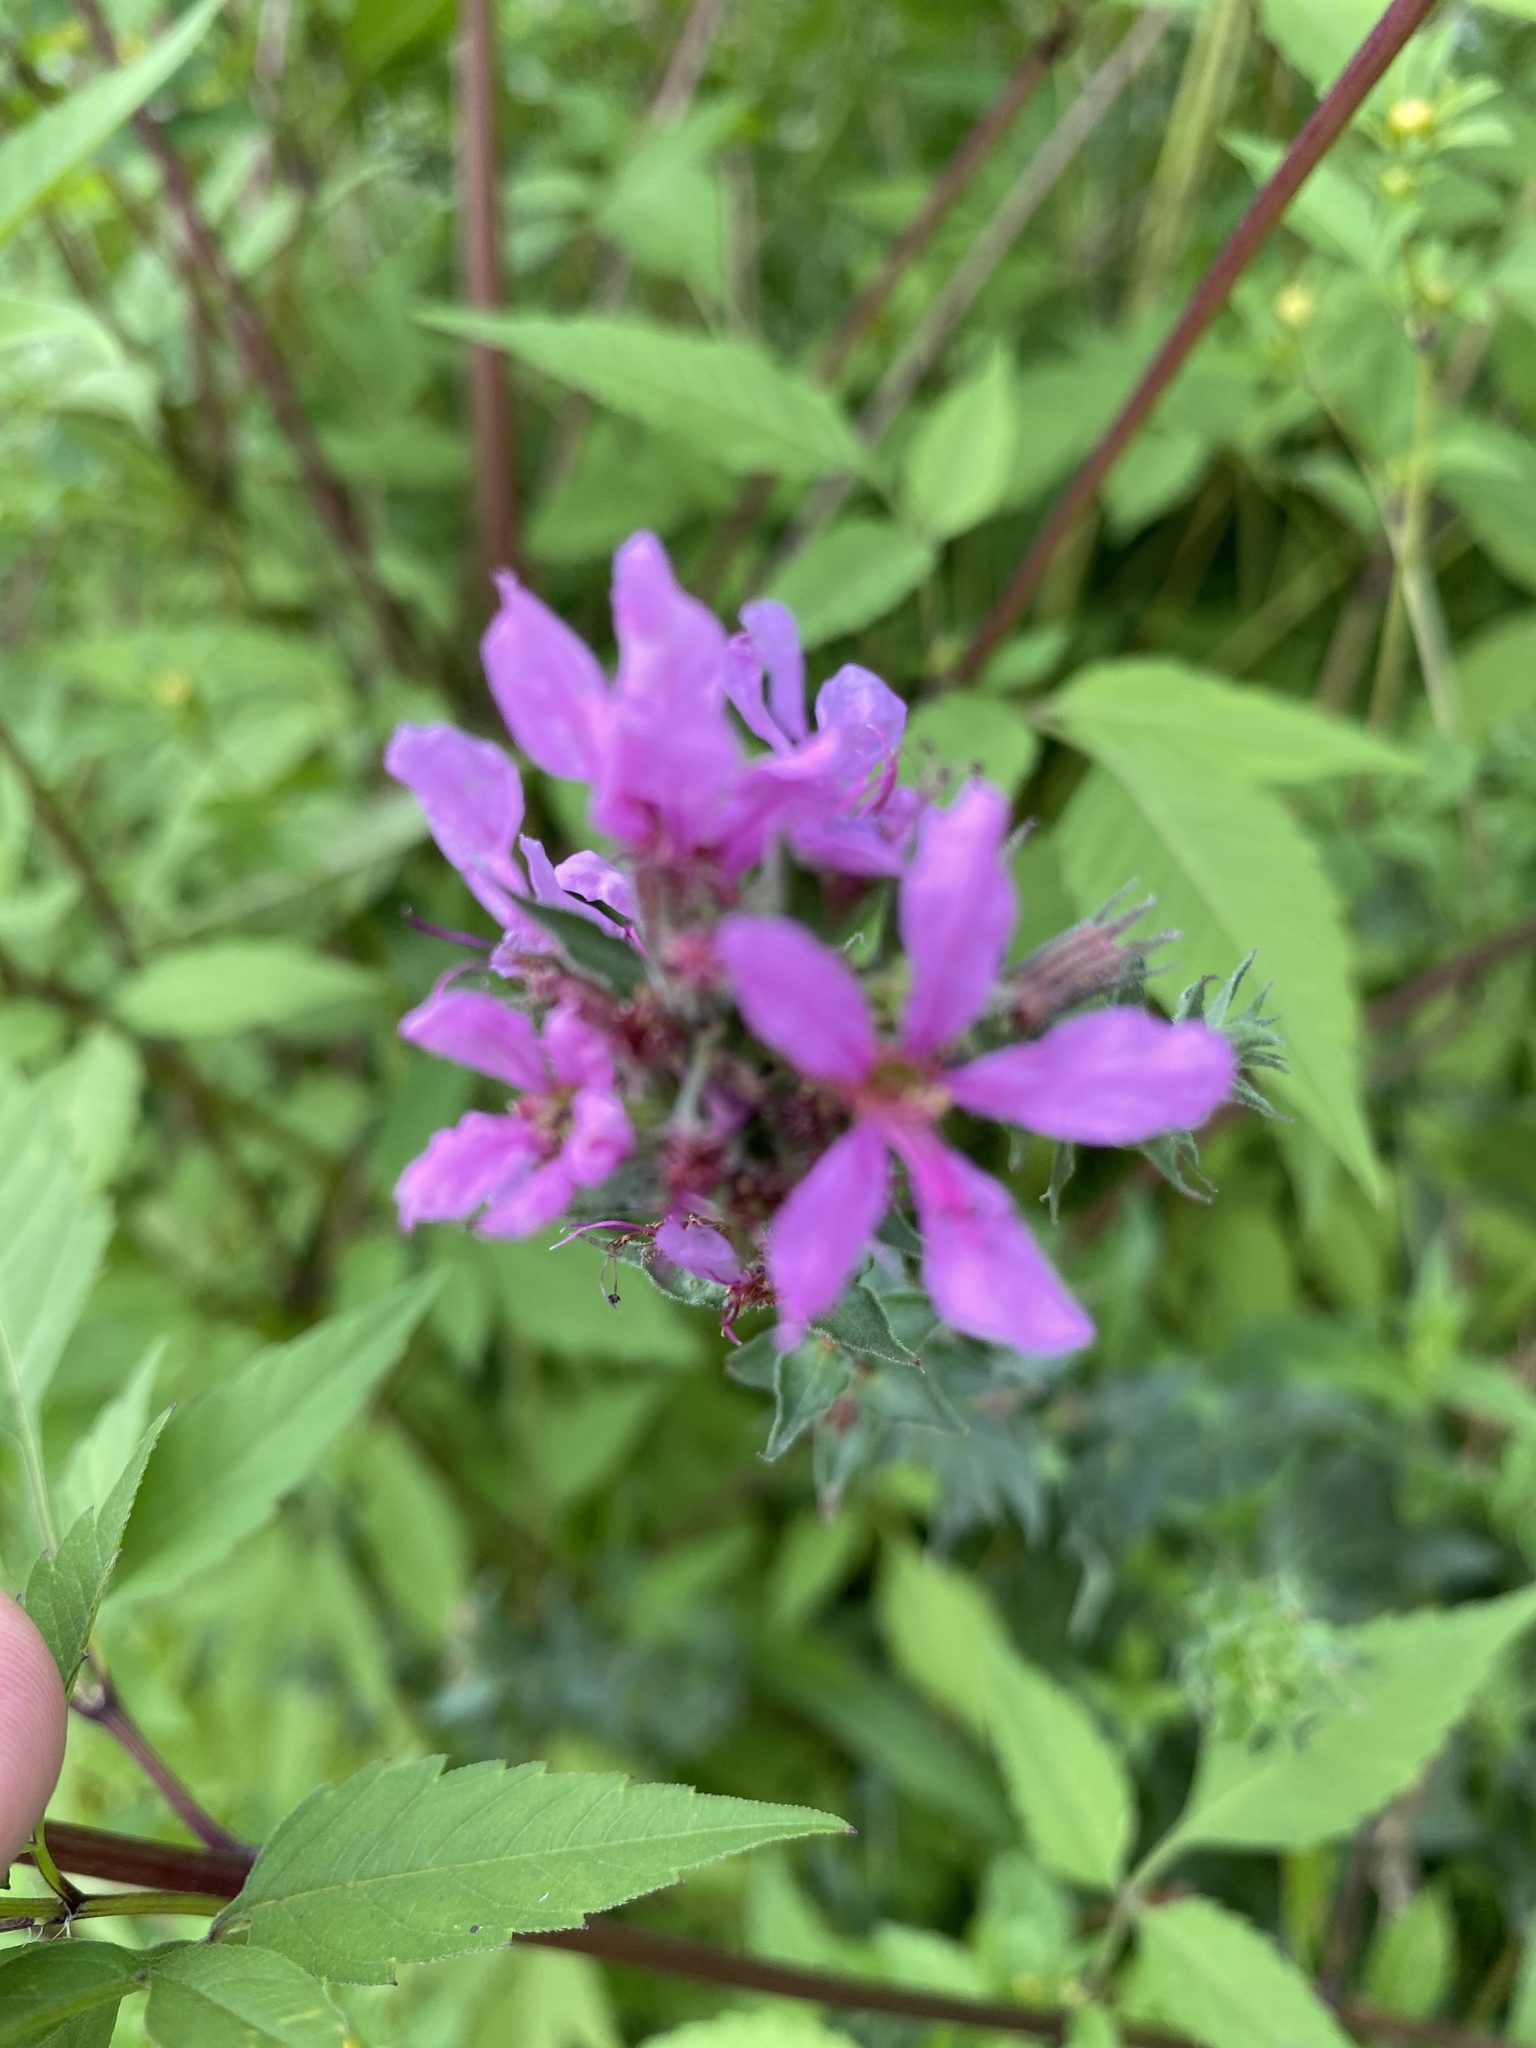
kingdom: Plantae
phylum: Tracheophyta
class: Magnoliopsida
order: Myrtales
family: Lythraceae
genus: Lythrum
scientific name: Lythrum salicaria
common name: Purple loosestrife
